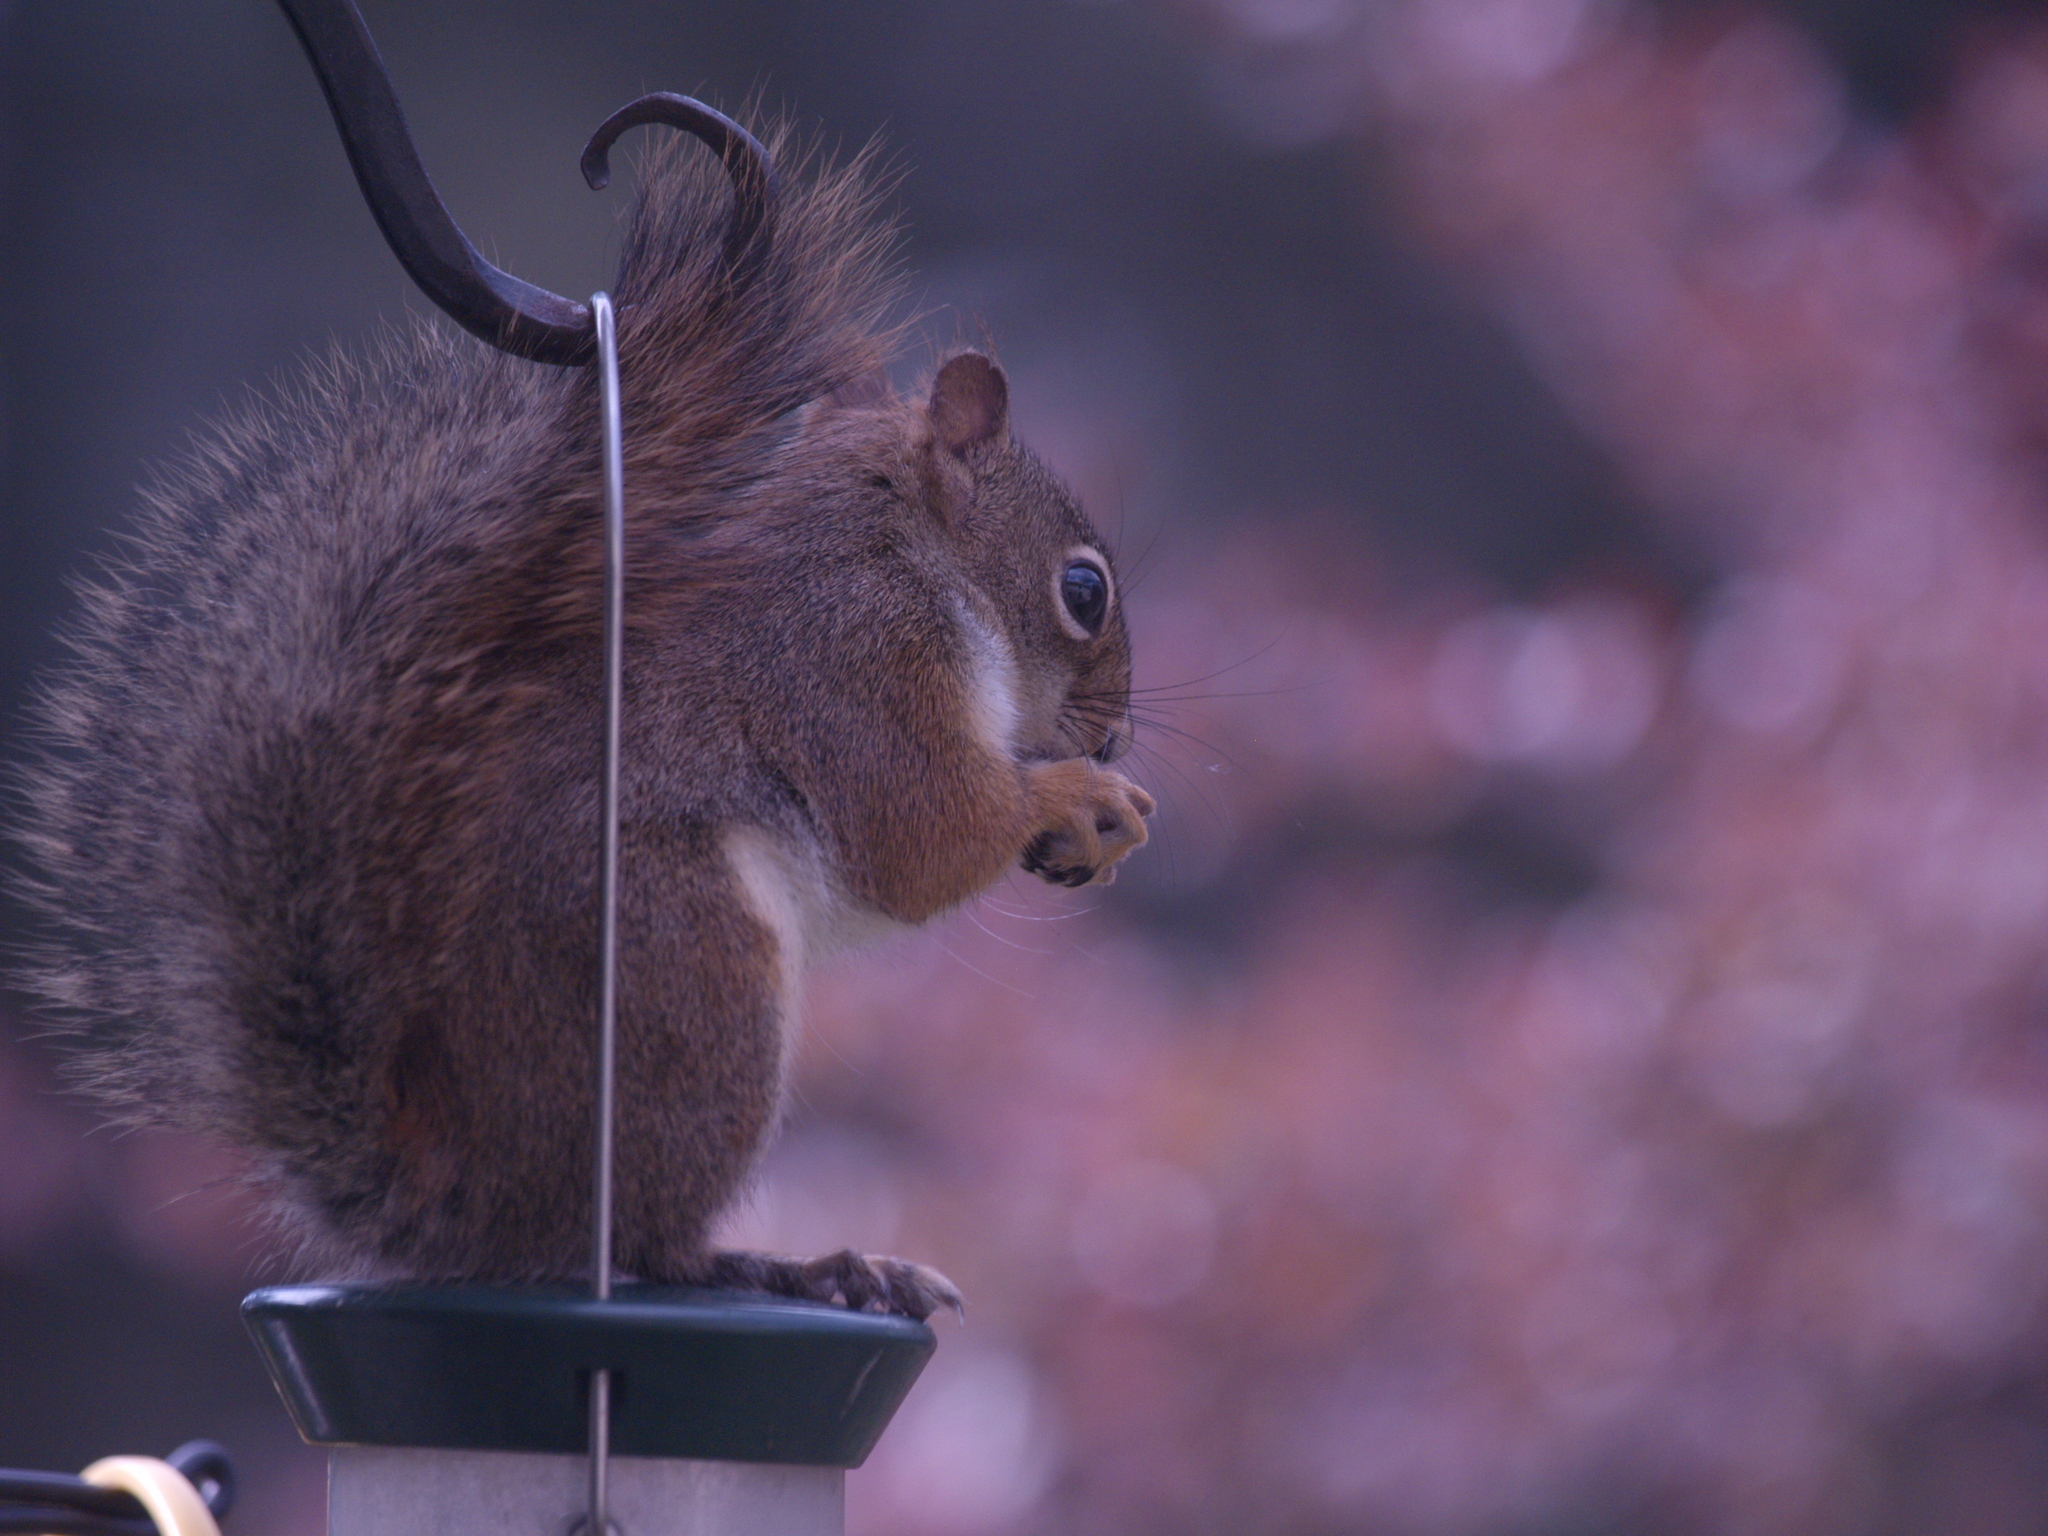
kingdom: Animalia
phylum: Chordata
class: Mammalia
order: Rodentia
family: Sciuridae
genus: Tamiasciurus
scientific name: Tamiasciurus hudsonicus
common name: Red squirrel
